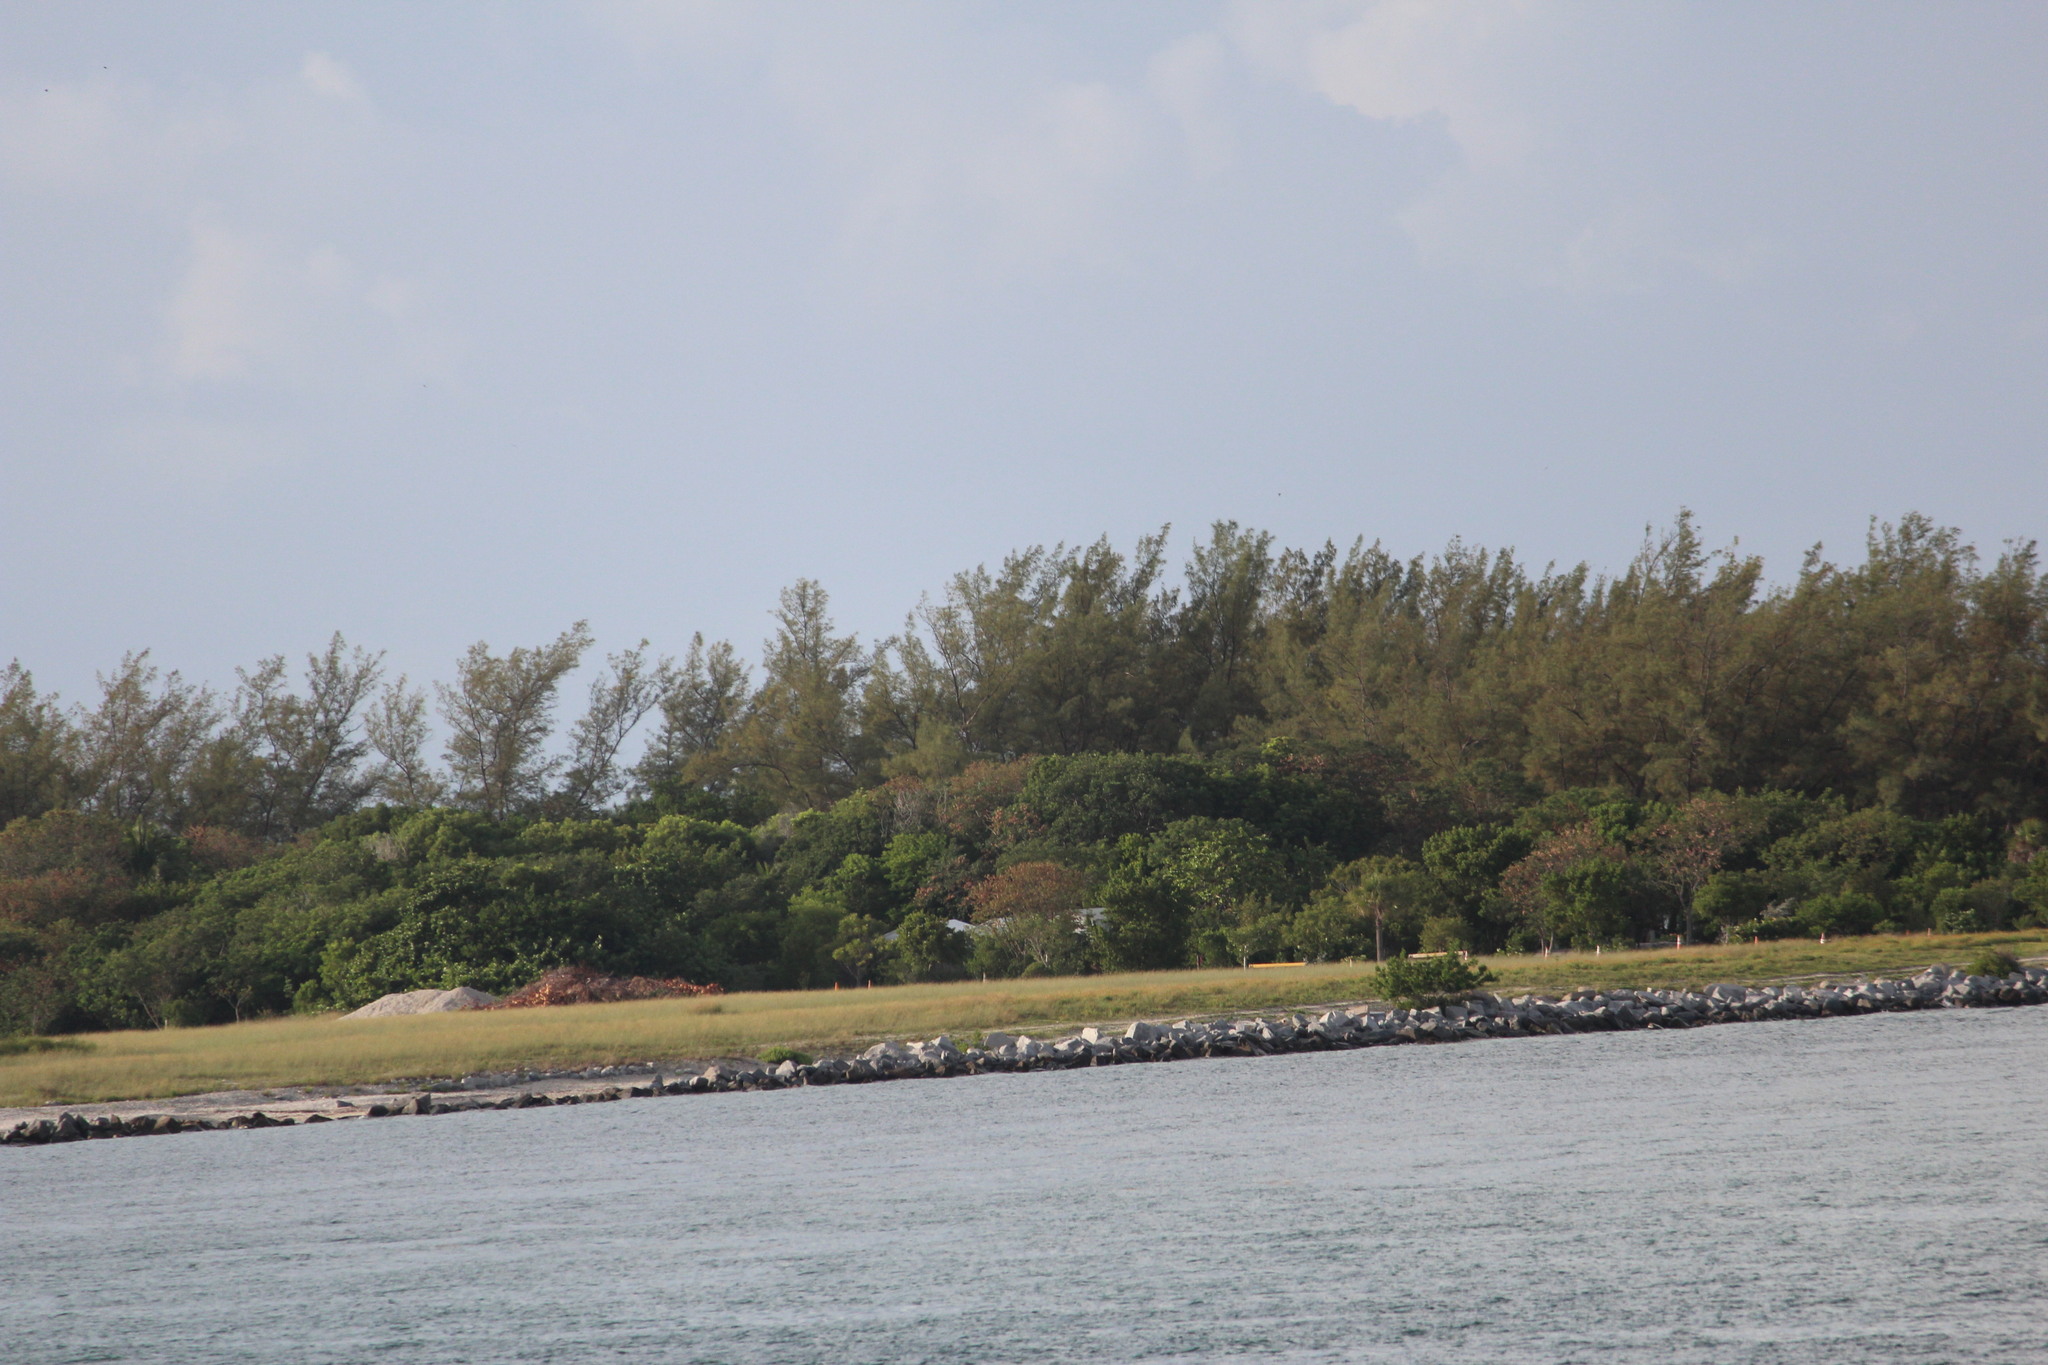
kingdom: Plantae
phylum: Tracheophyta
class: Magnoliopsida
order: Fagales
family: Casuarinaceae
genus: Casuarina
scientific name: Casuarina equisetifolia
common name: Beach sheoak
